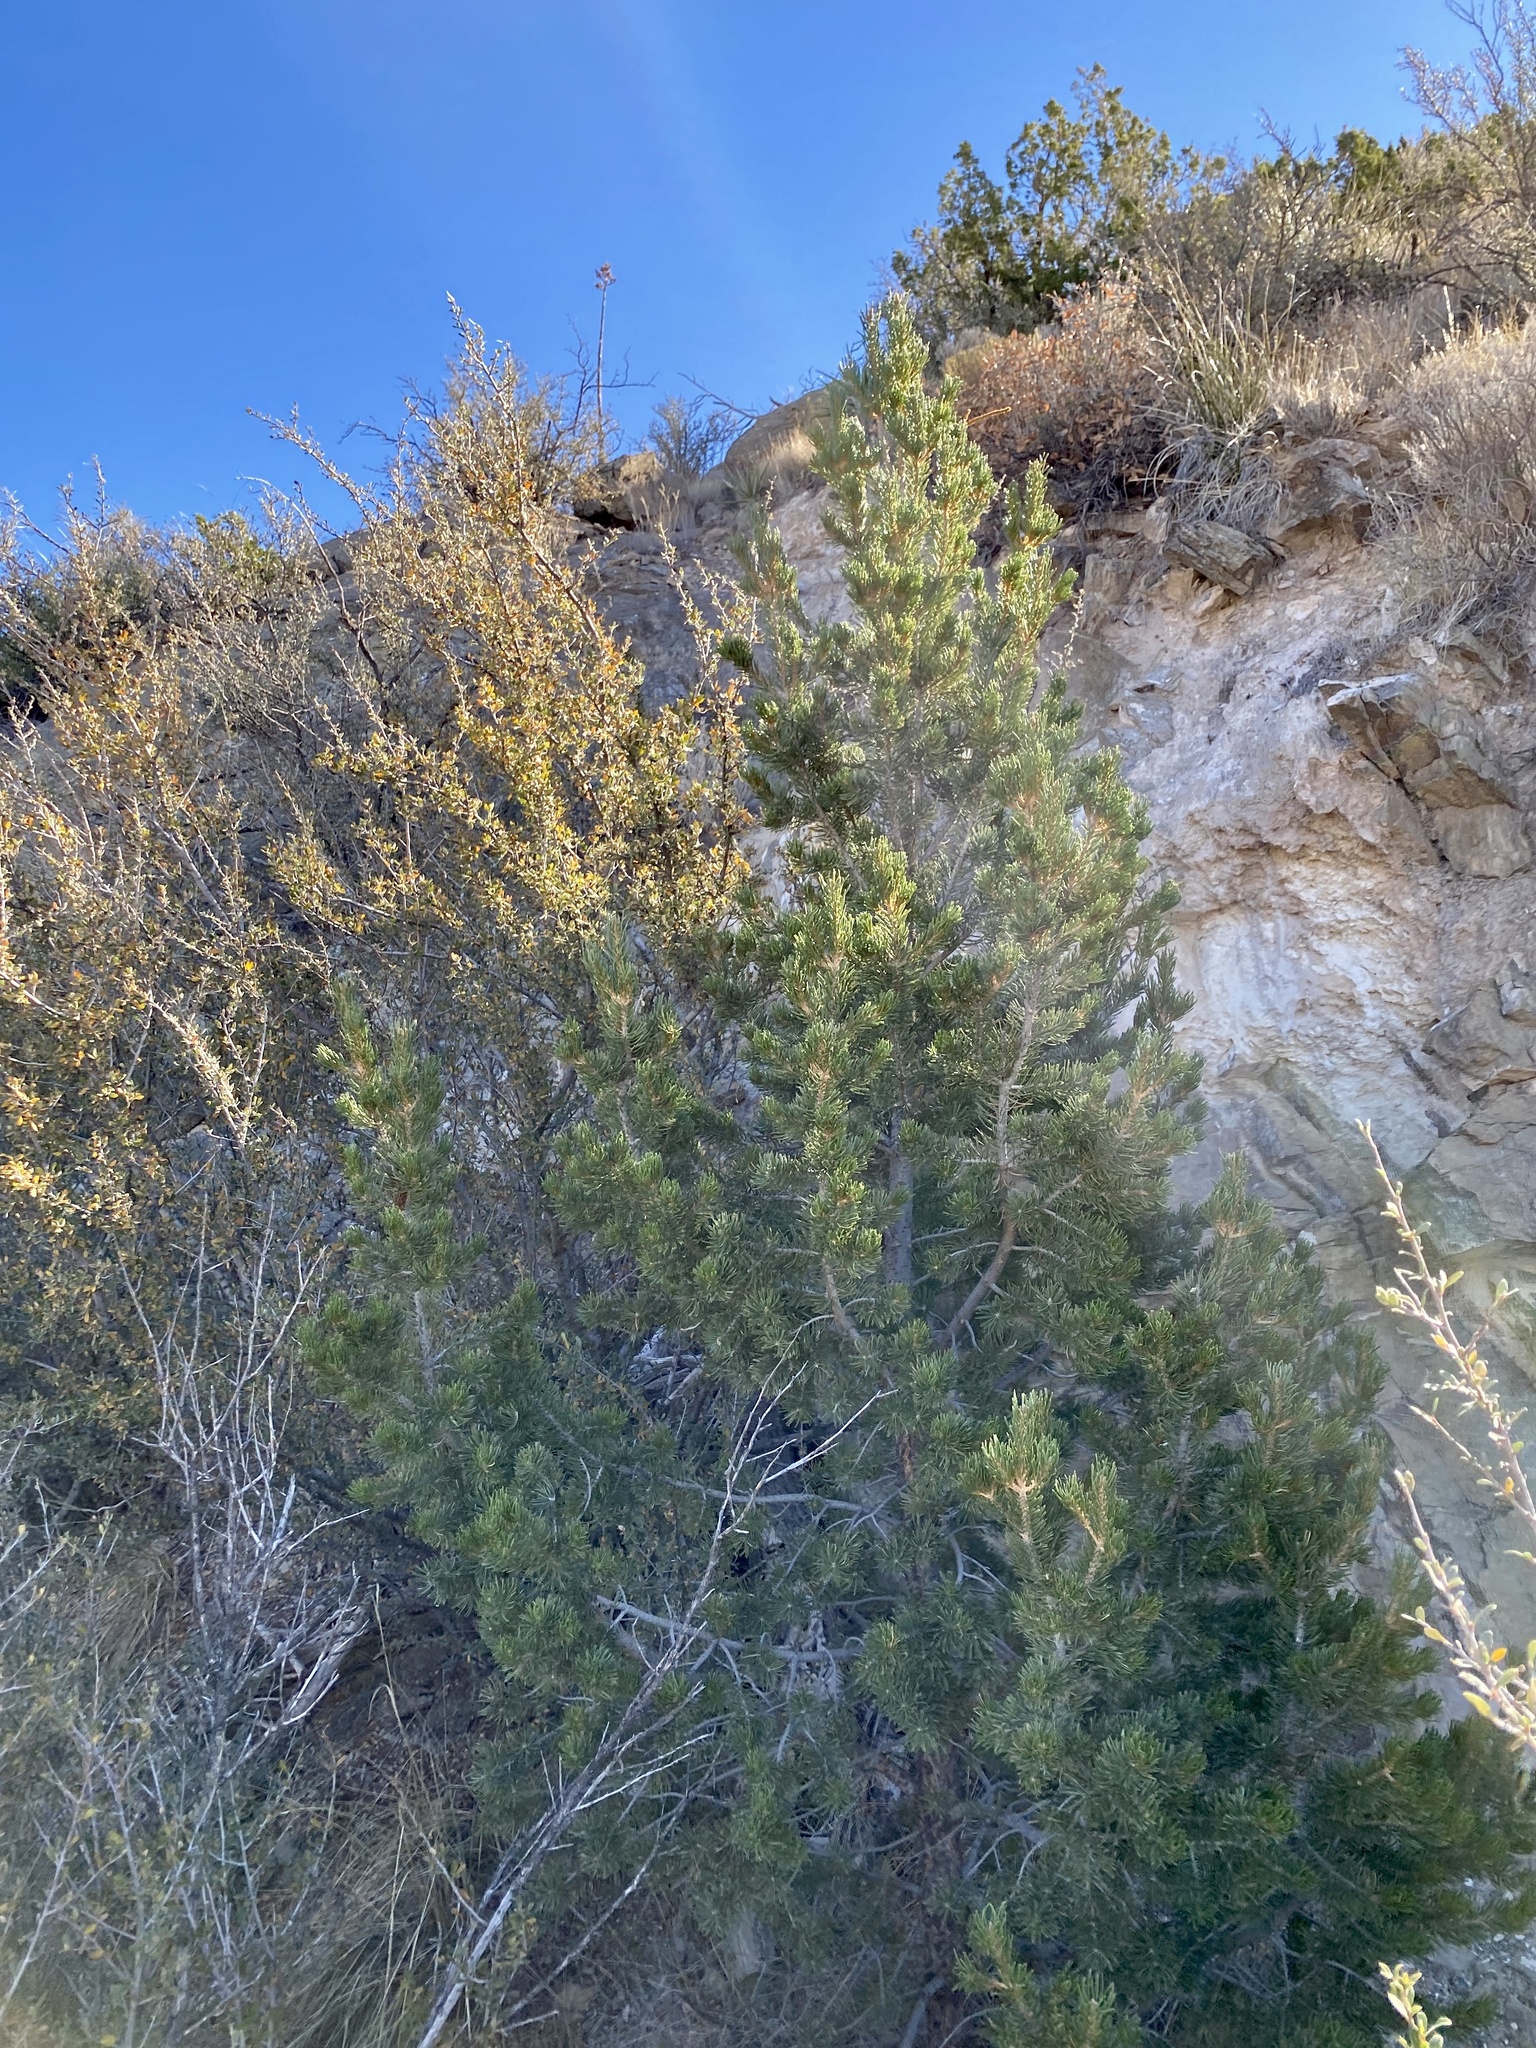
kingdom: Plantae
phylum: Tracheophyta
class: Pinopsida
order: Pinales
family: Pinaceae
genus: Pinus
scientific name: Pinus edulis
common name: Colorado pinyon
